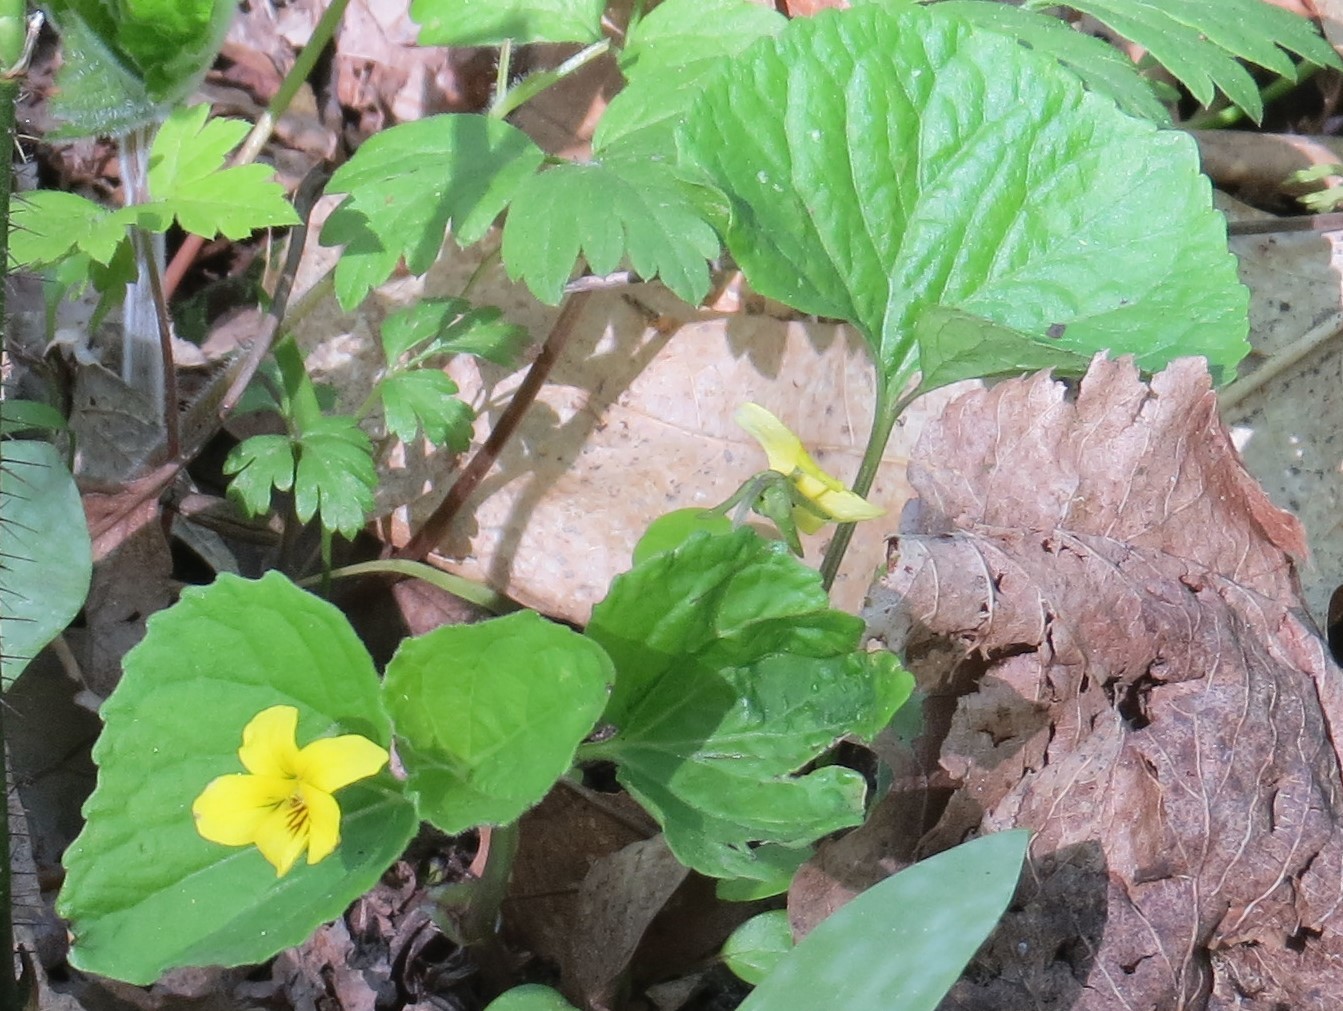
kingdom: Plantae
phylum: Tracheophyta
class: Magnoliopsida
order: Malpighiales
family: Violaceae
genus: Viola
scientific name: Viola eriocarpa
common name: Smooth yellow violet
